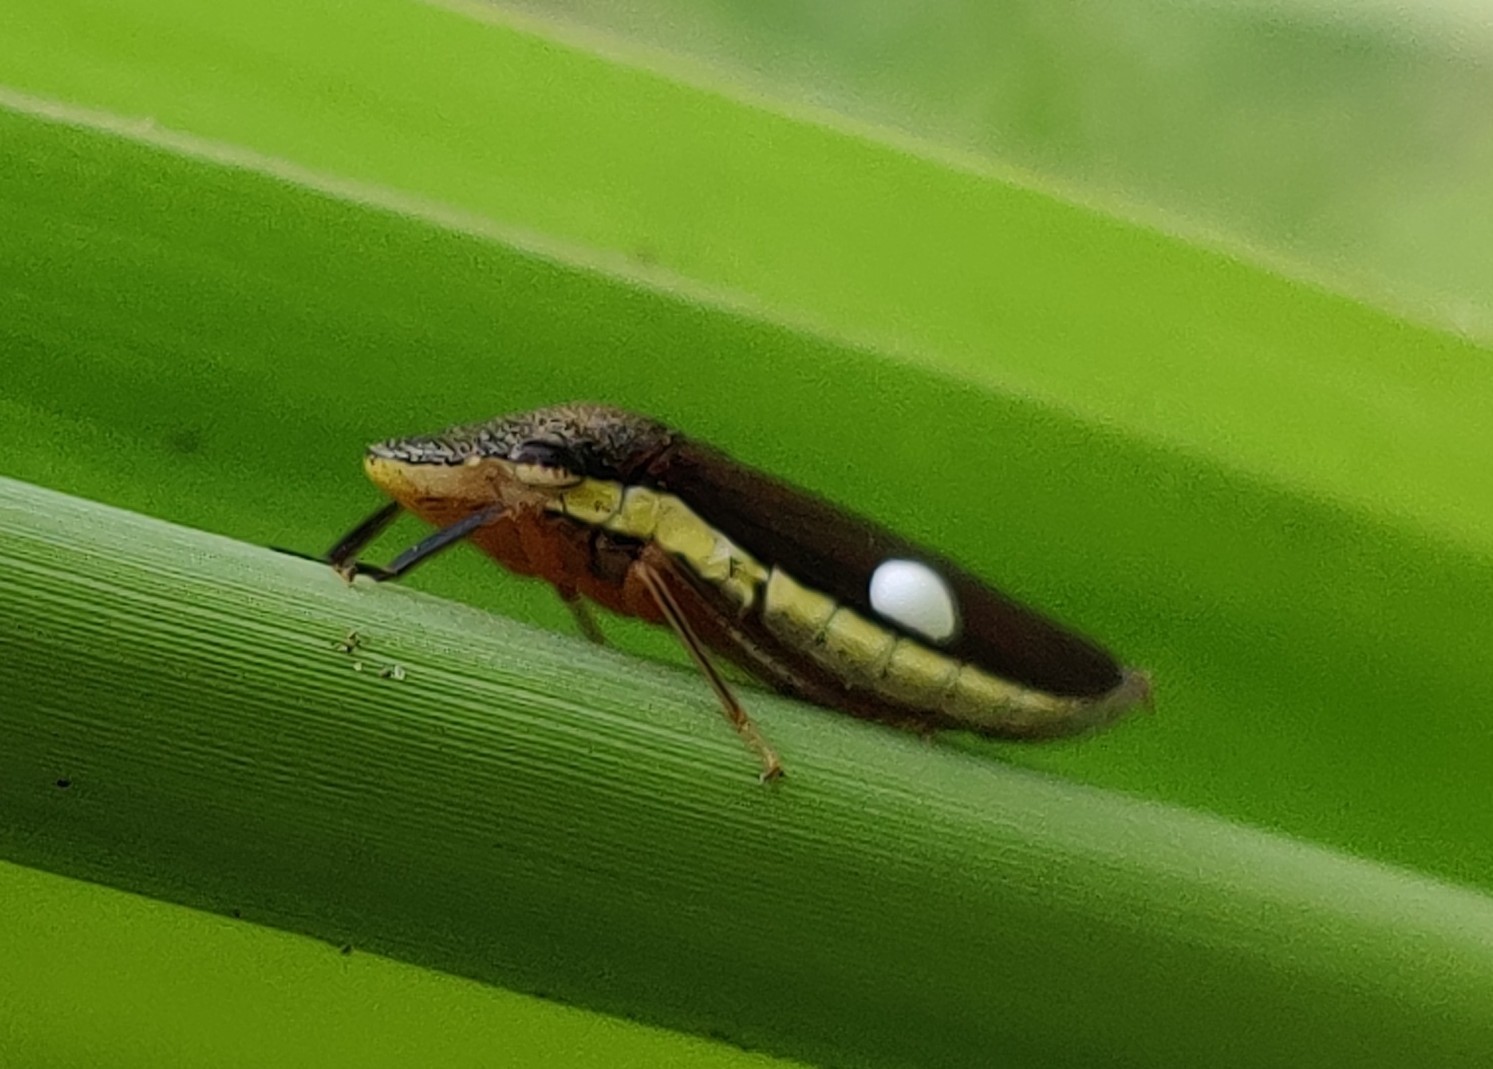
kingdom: Animalia
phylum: Arthropoda
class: Insecta
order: Hemiptera
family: Cicadellidae
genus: Homalodisca
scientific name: Homalodisca insolita
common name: Johnson grass sharpshooter
